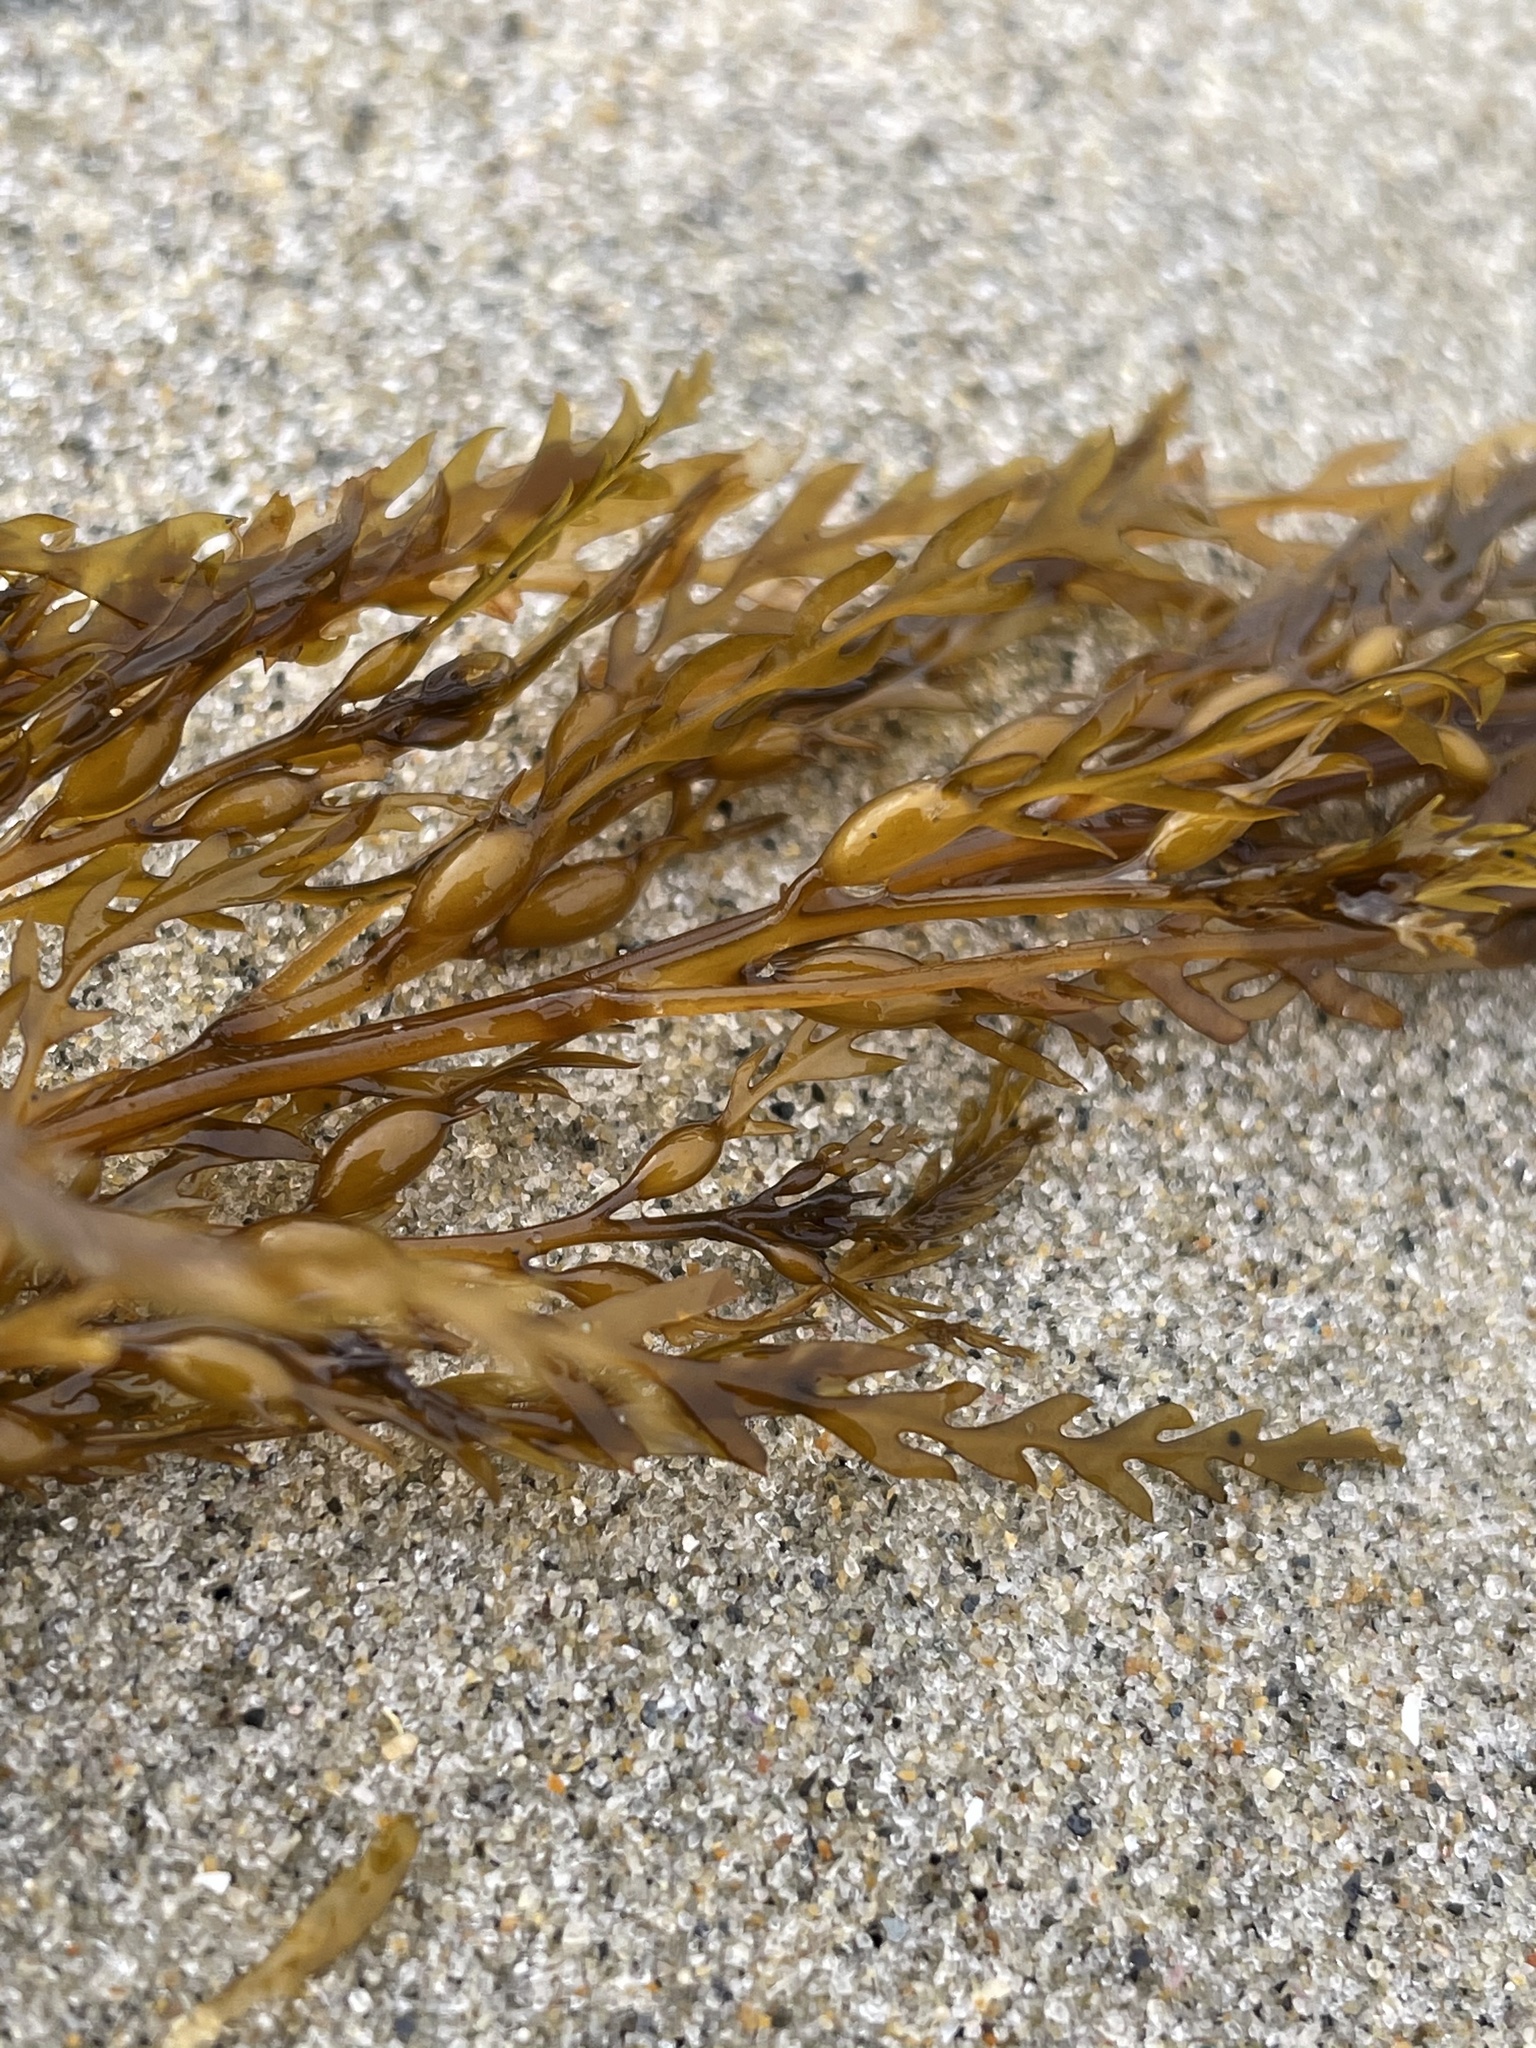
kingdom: Chromista
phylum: Ochrophyta
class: Phaeophyceae
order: Fucales
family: Sargassaceae
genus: Sargassum
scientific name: Sargassum horneri
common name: Devil weed
